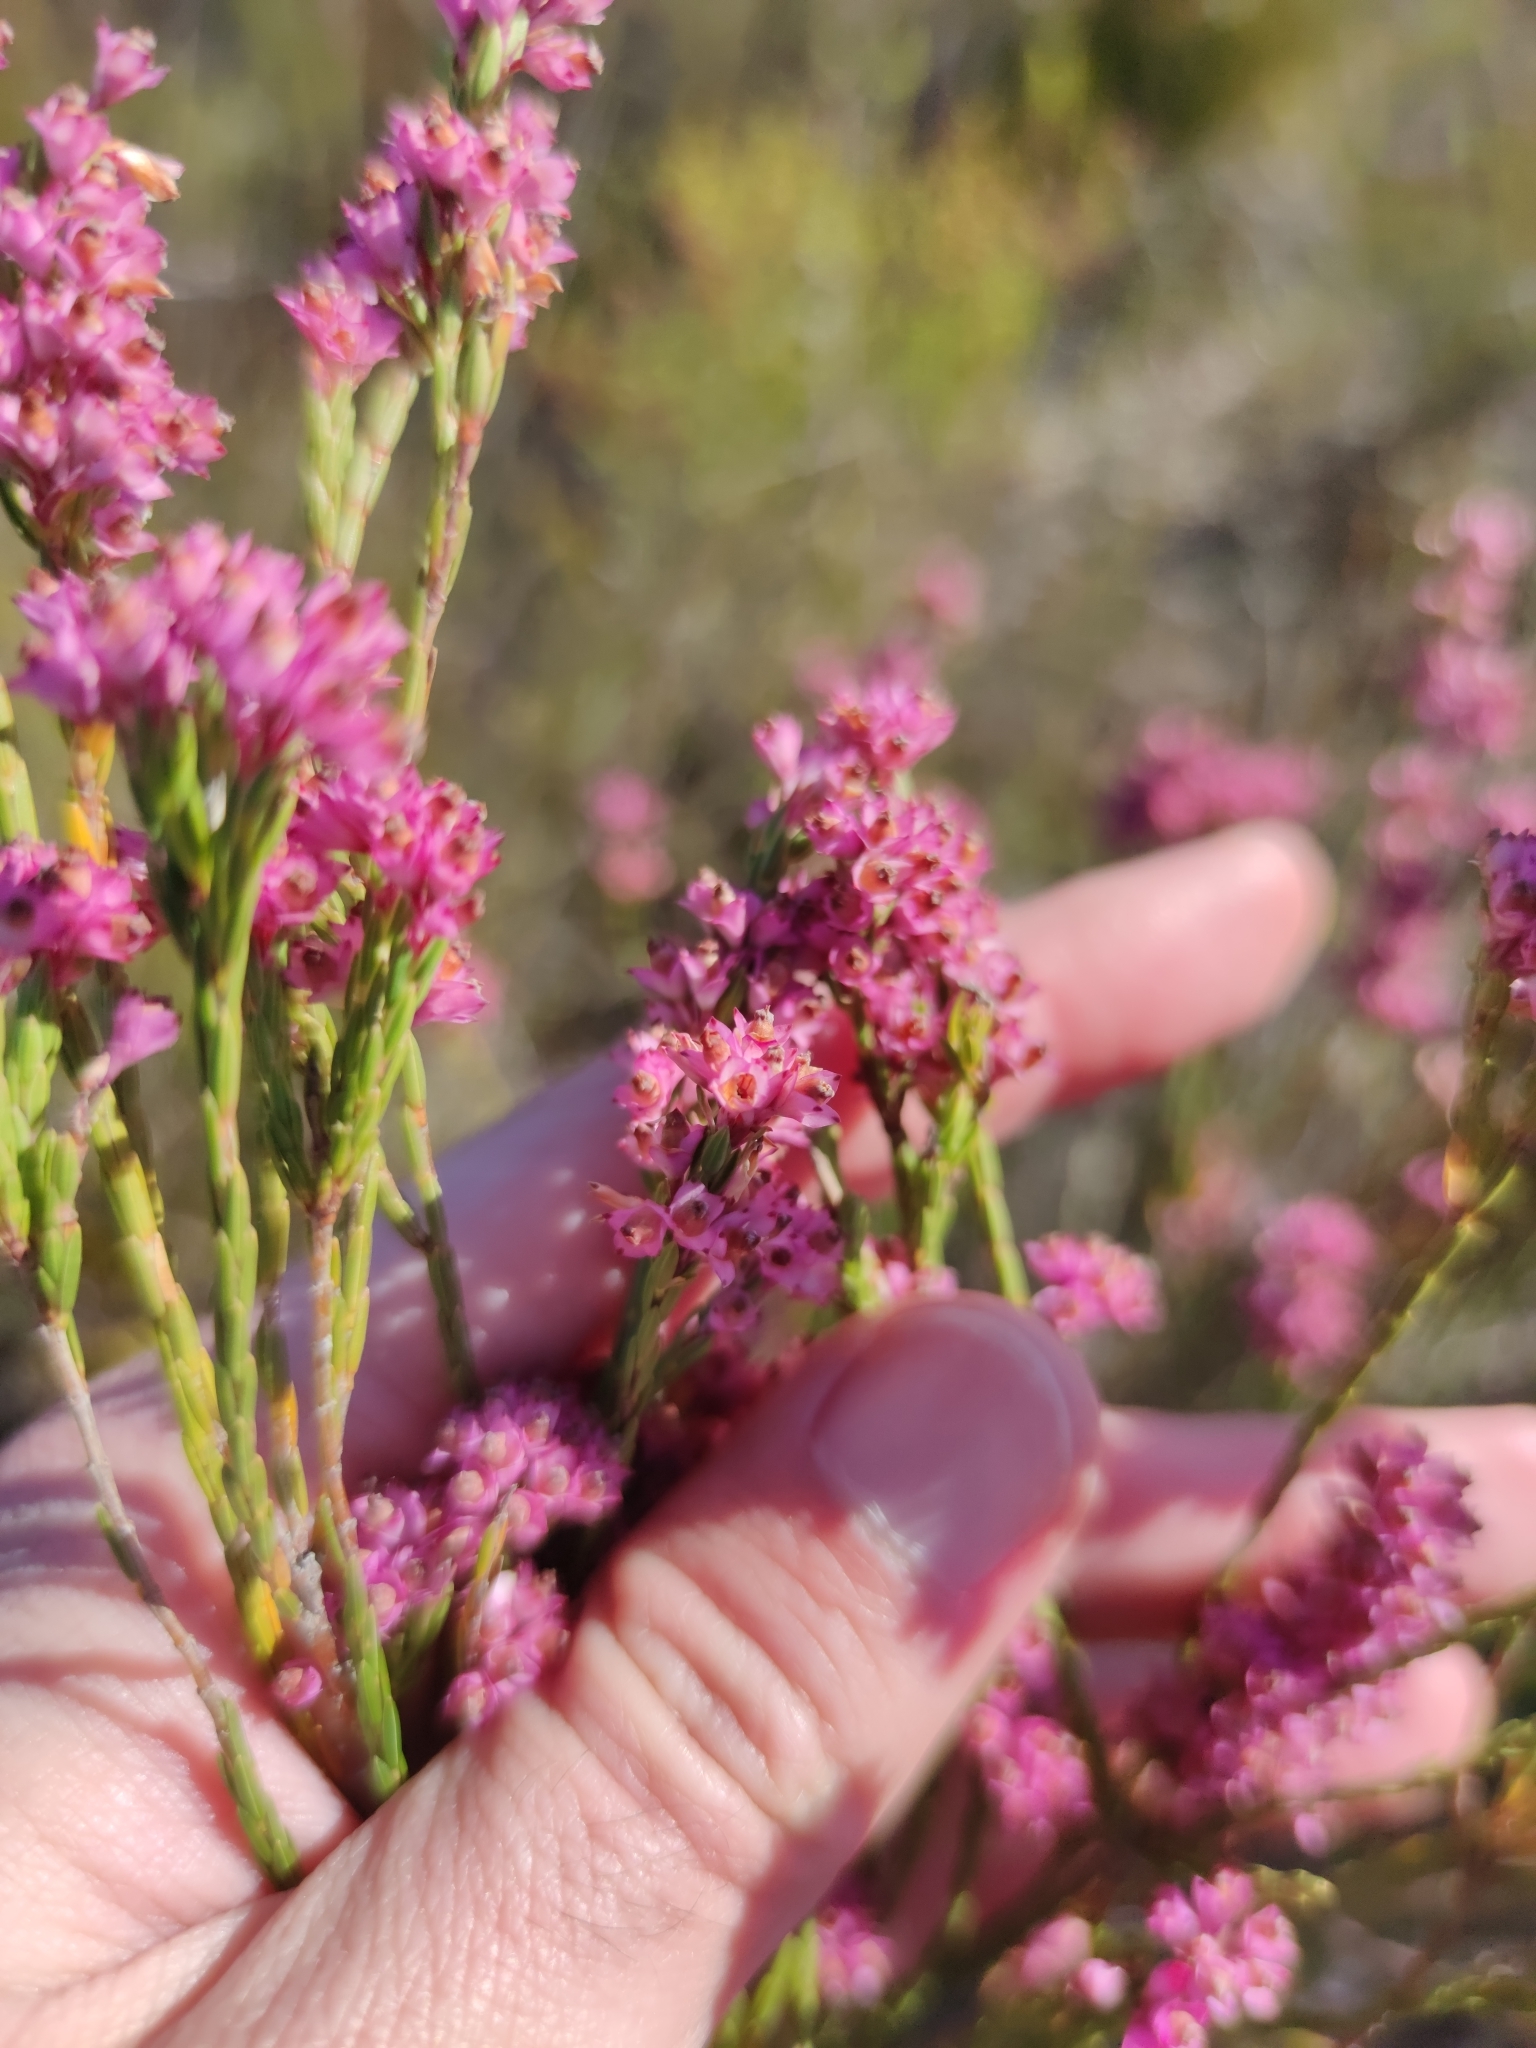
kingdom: Plantae
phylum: Tracheophyta
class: Magnoliopsida
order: Ericales
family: Ericaceae
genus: Erica
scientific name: Erica corifolia
